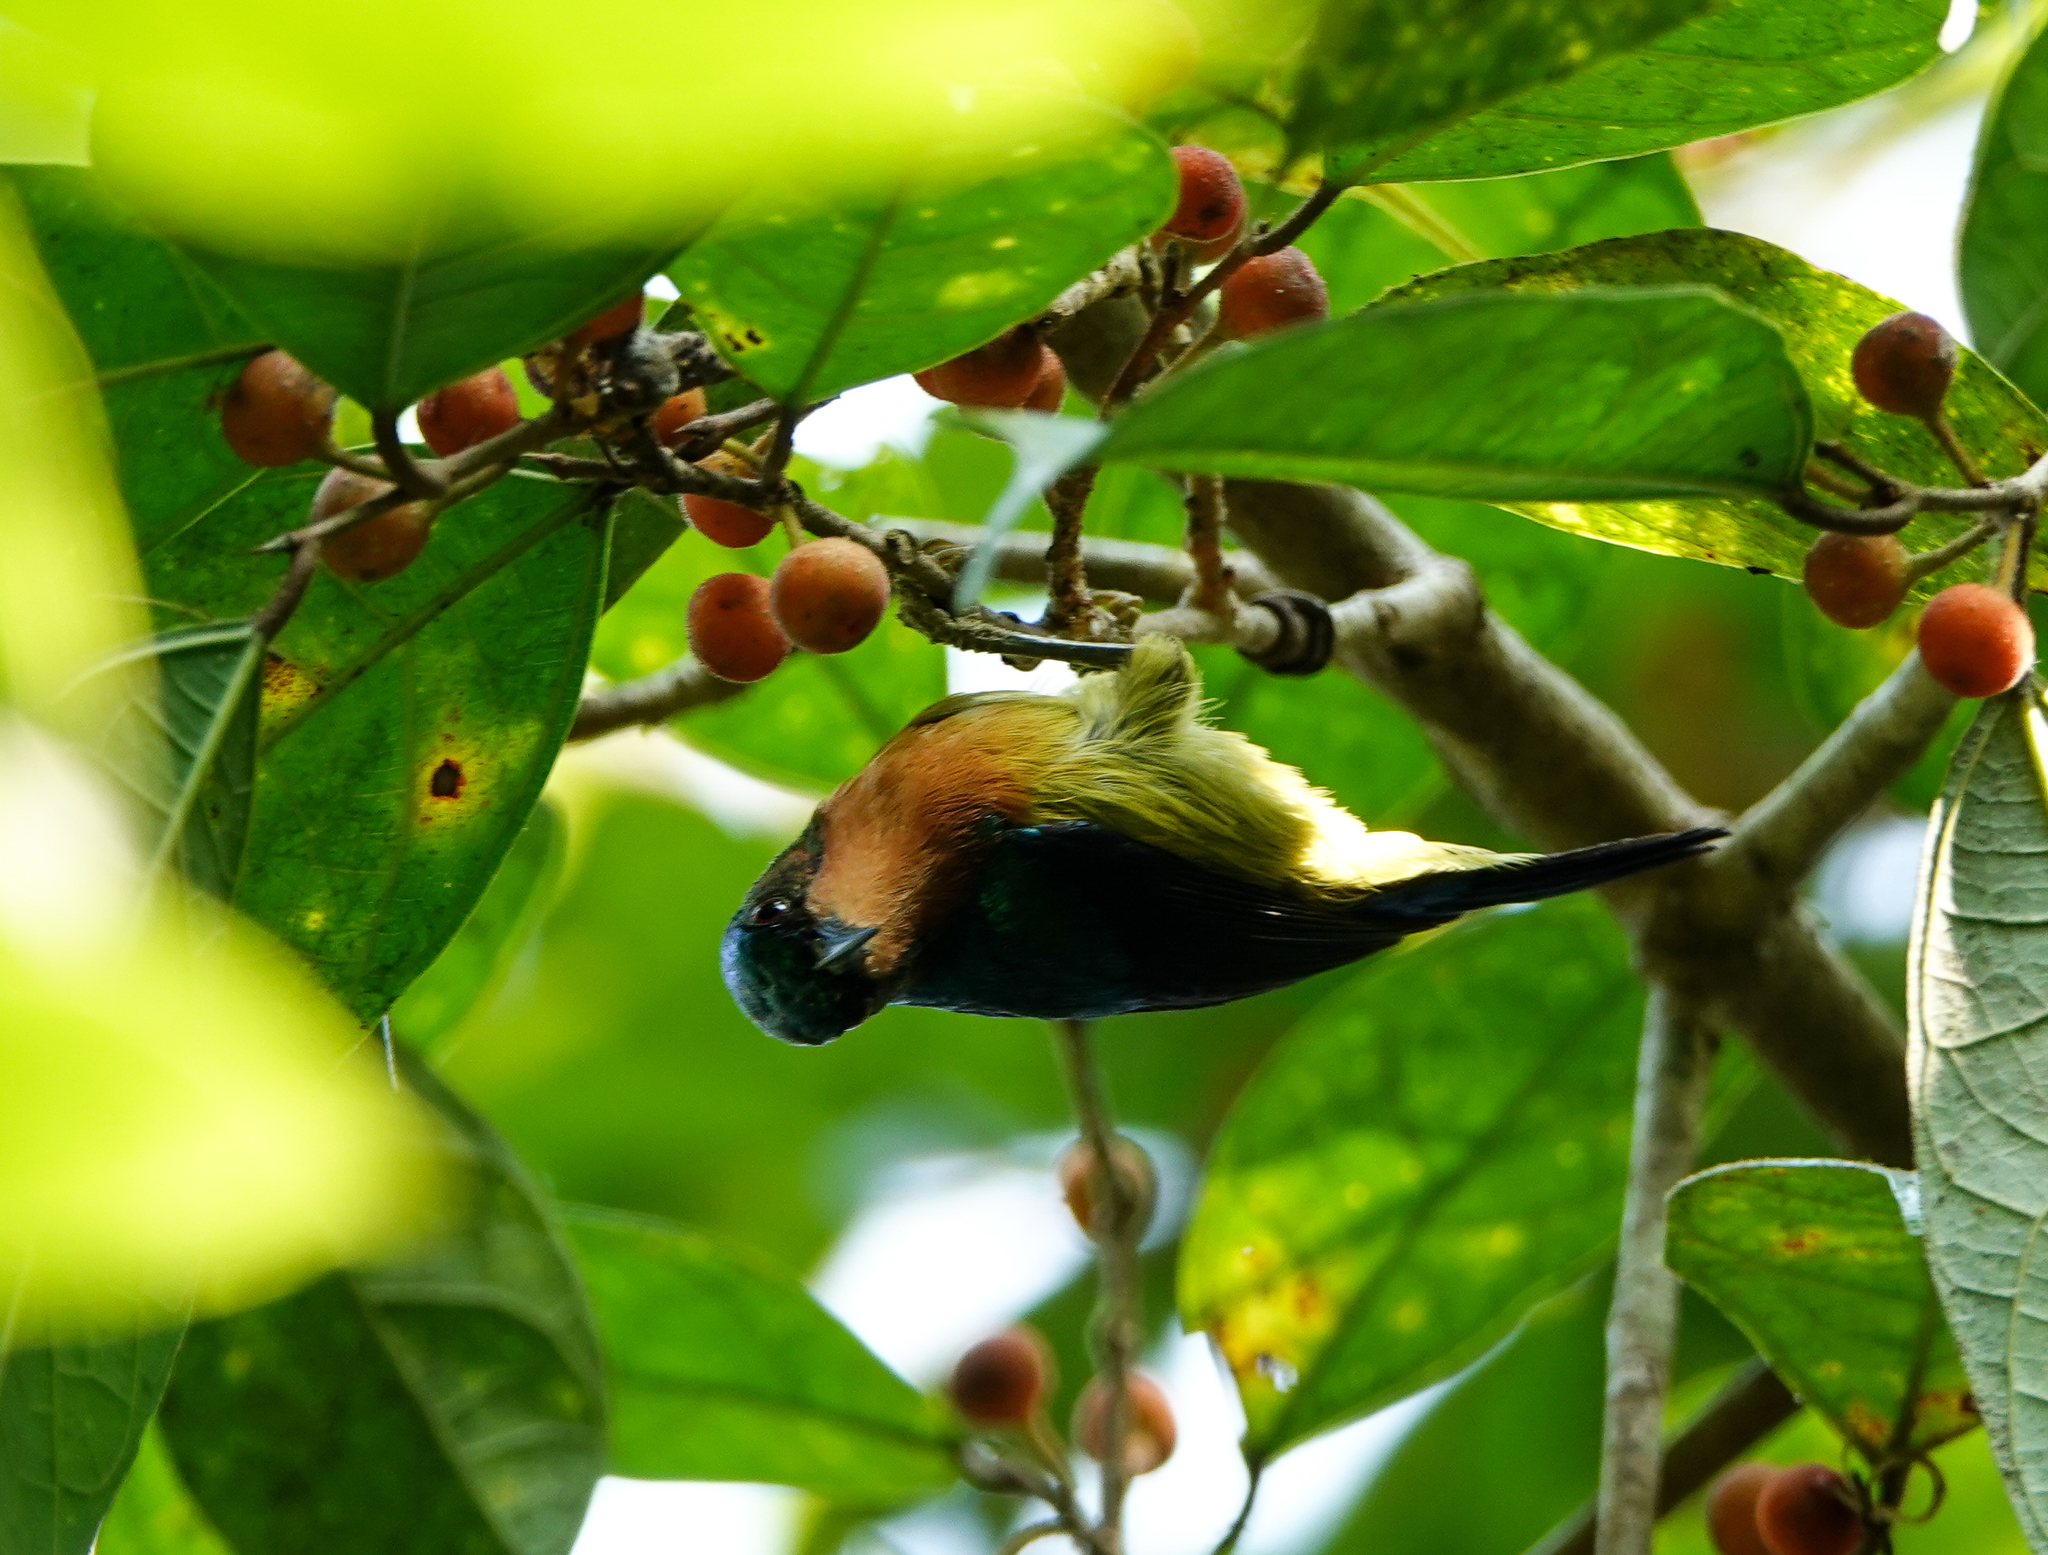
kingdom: Animalia
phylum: Chordata
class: Aves
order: Passeriformes
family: Nectariniidae
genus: Chalcoparia
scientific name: Chalcoparia singalensis
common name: Ruby-cheeked sunbird
